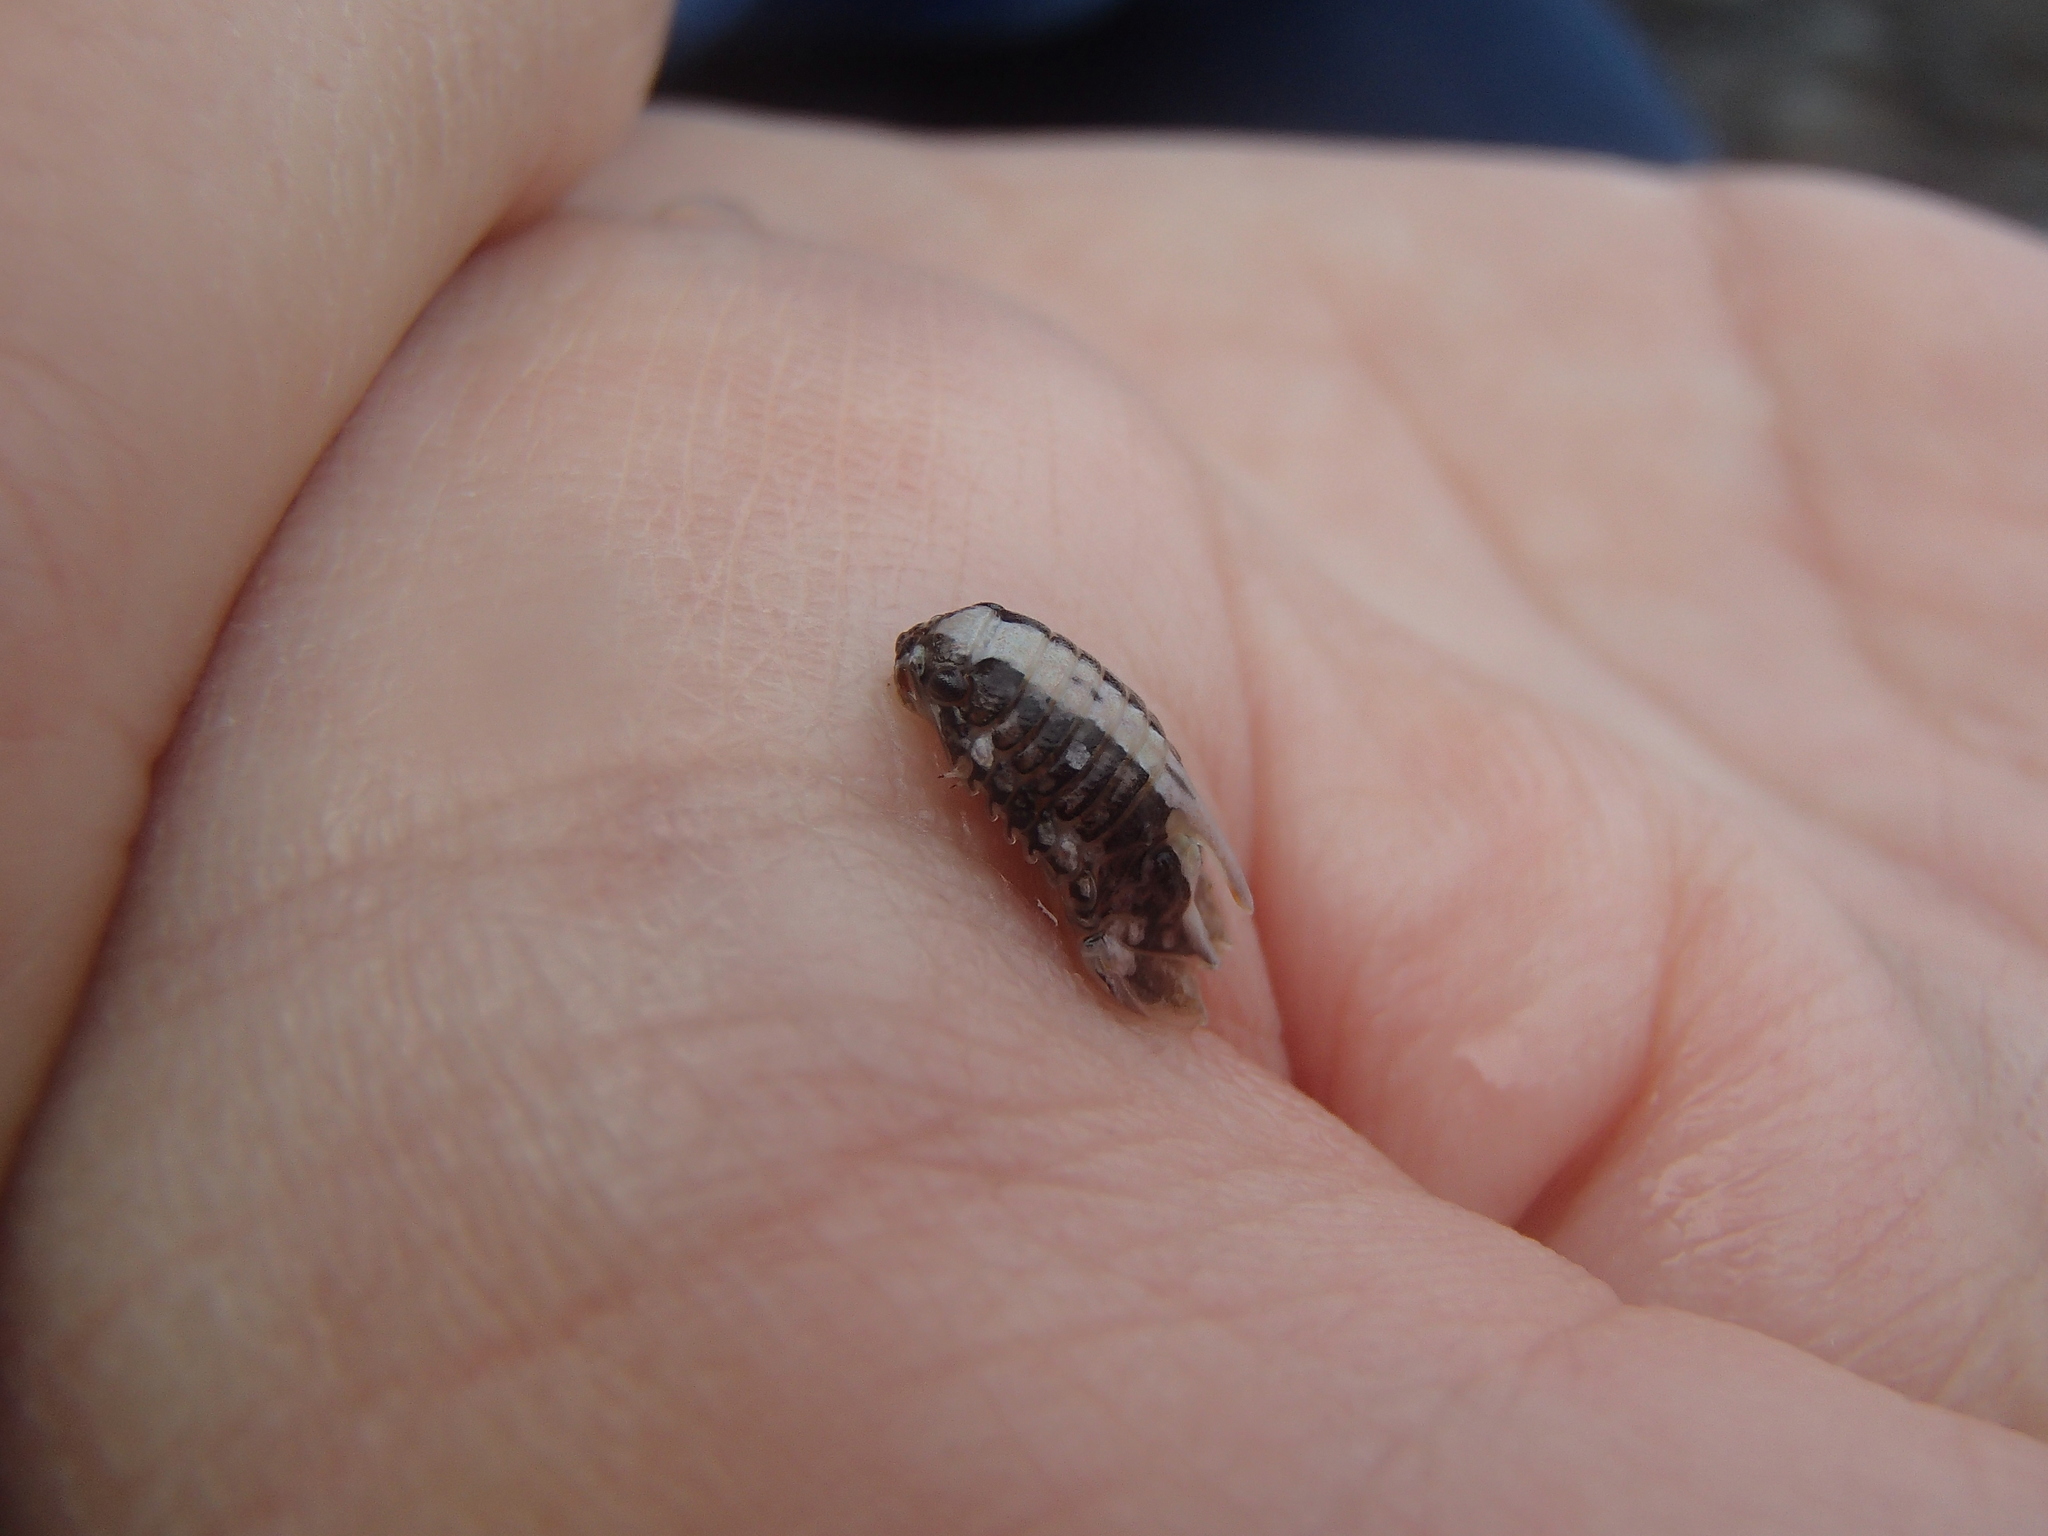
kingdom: Animalia
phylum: Arthropoda
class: Malacostraca
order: Isopoda
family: Sphaeromatidae
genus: Isocladus
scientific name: Isocladus armatus
